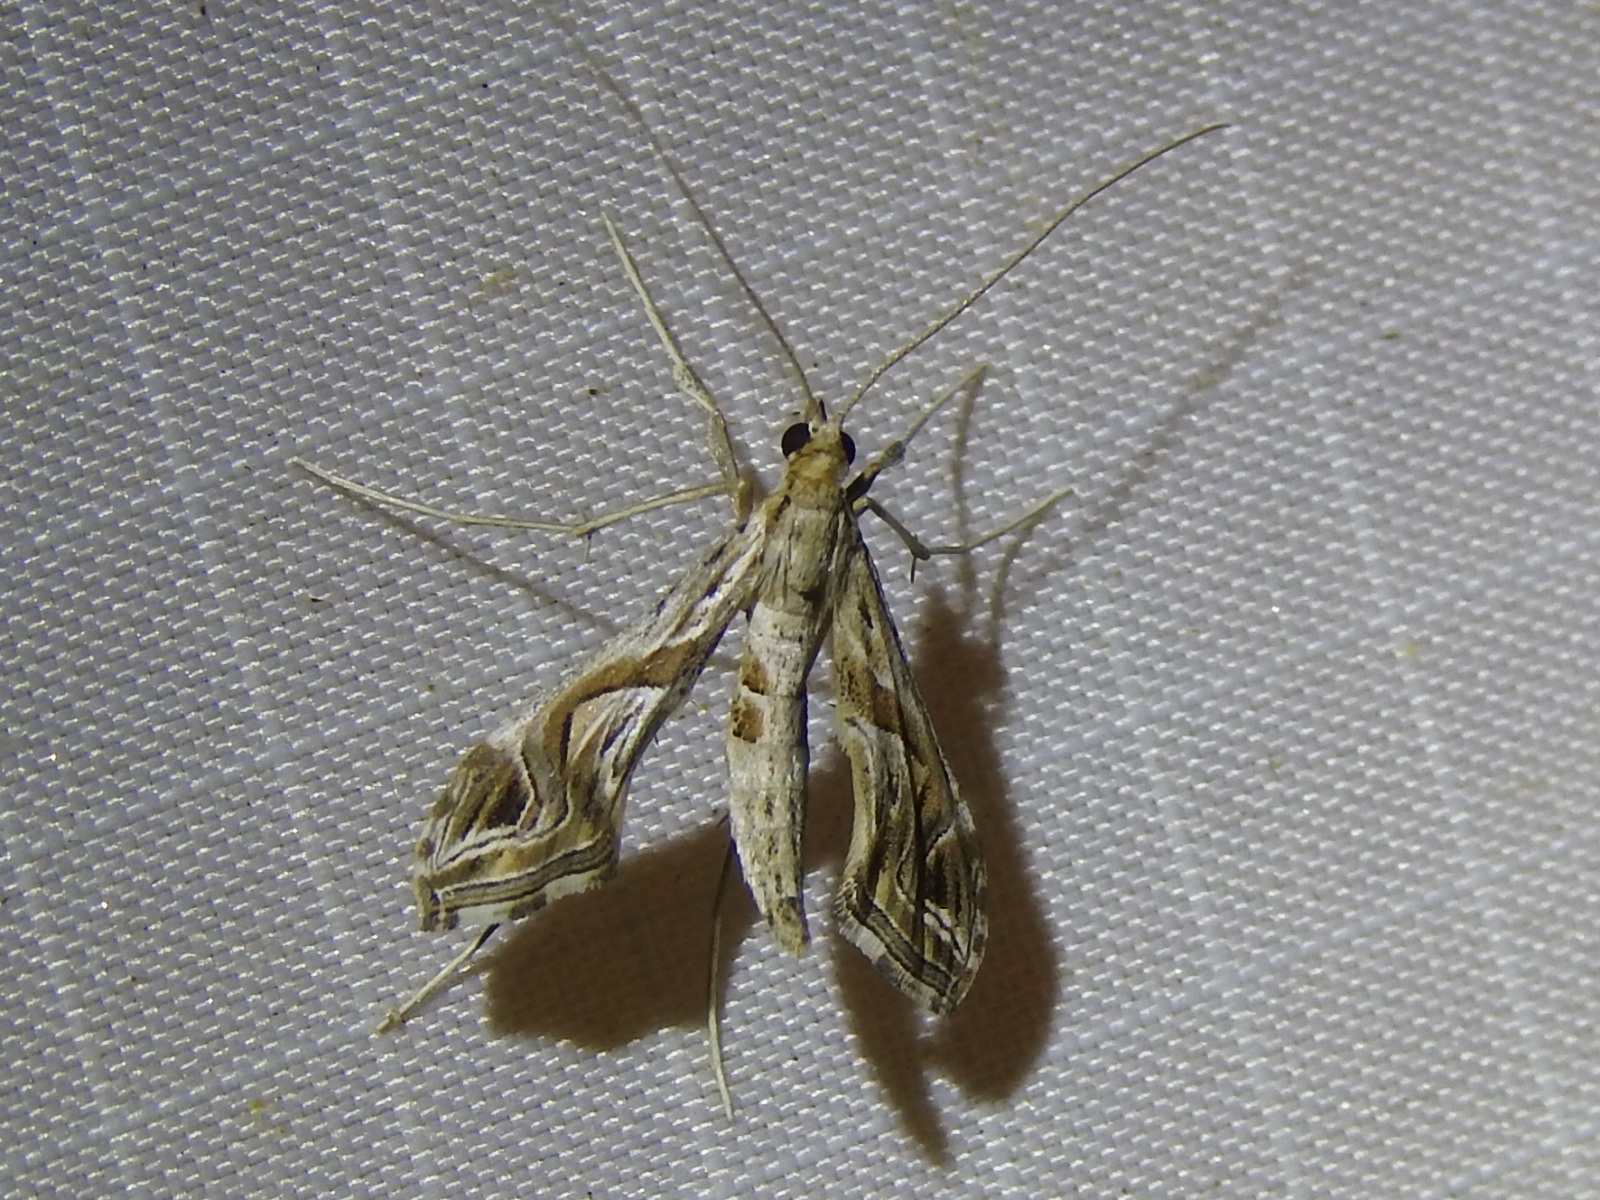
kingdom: Animalia
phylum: Arthropoda
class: Insecta
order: Lepidoptera
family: Crambidae
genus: Lineodes
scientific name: Lineodes integra
